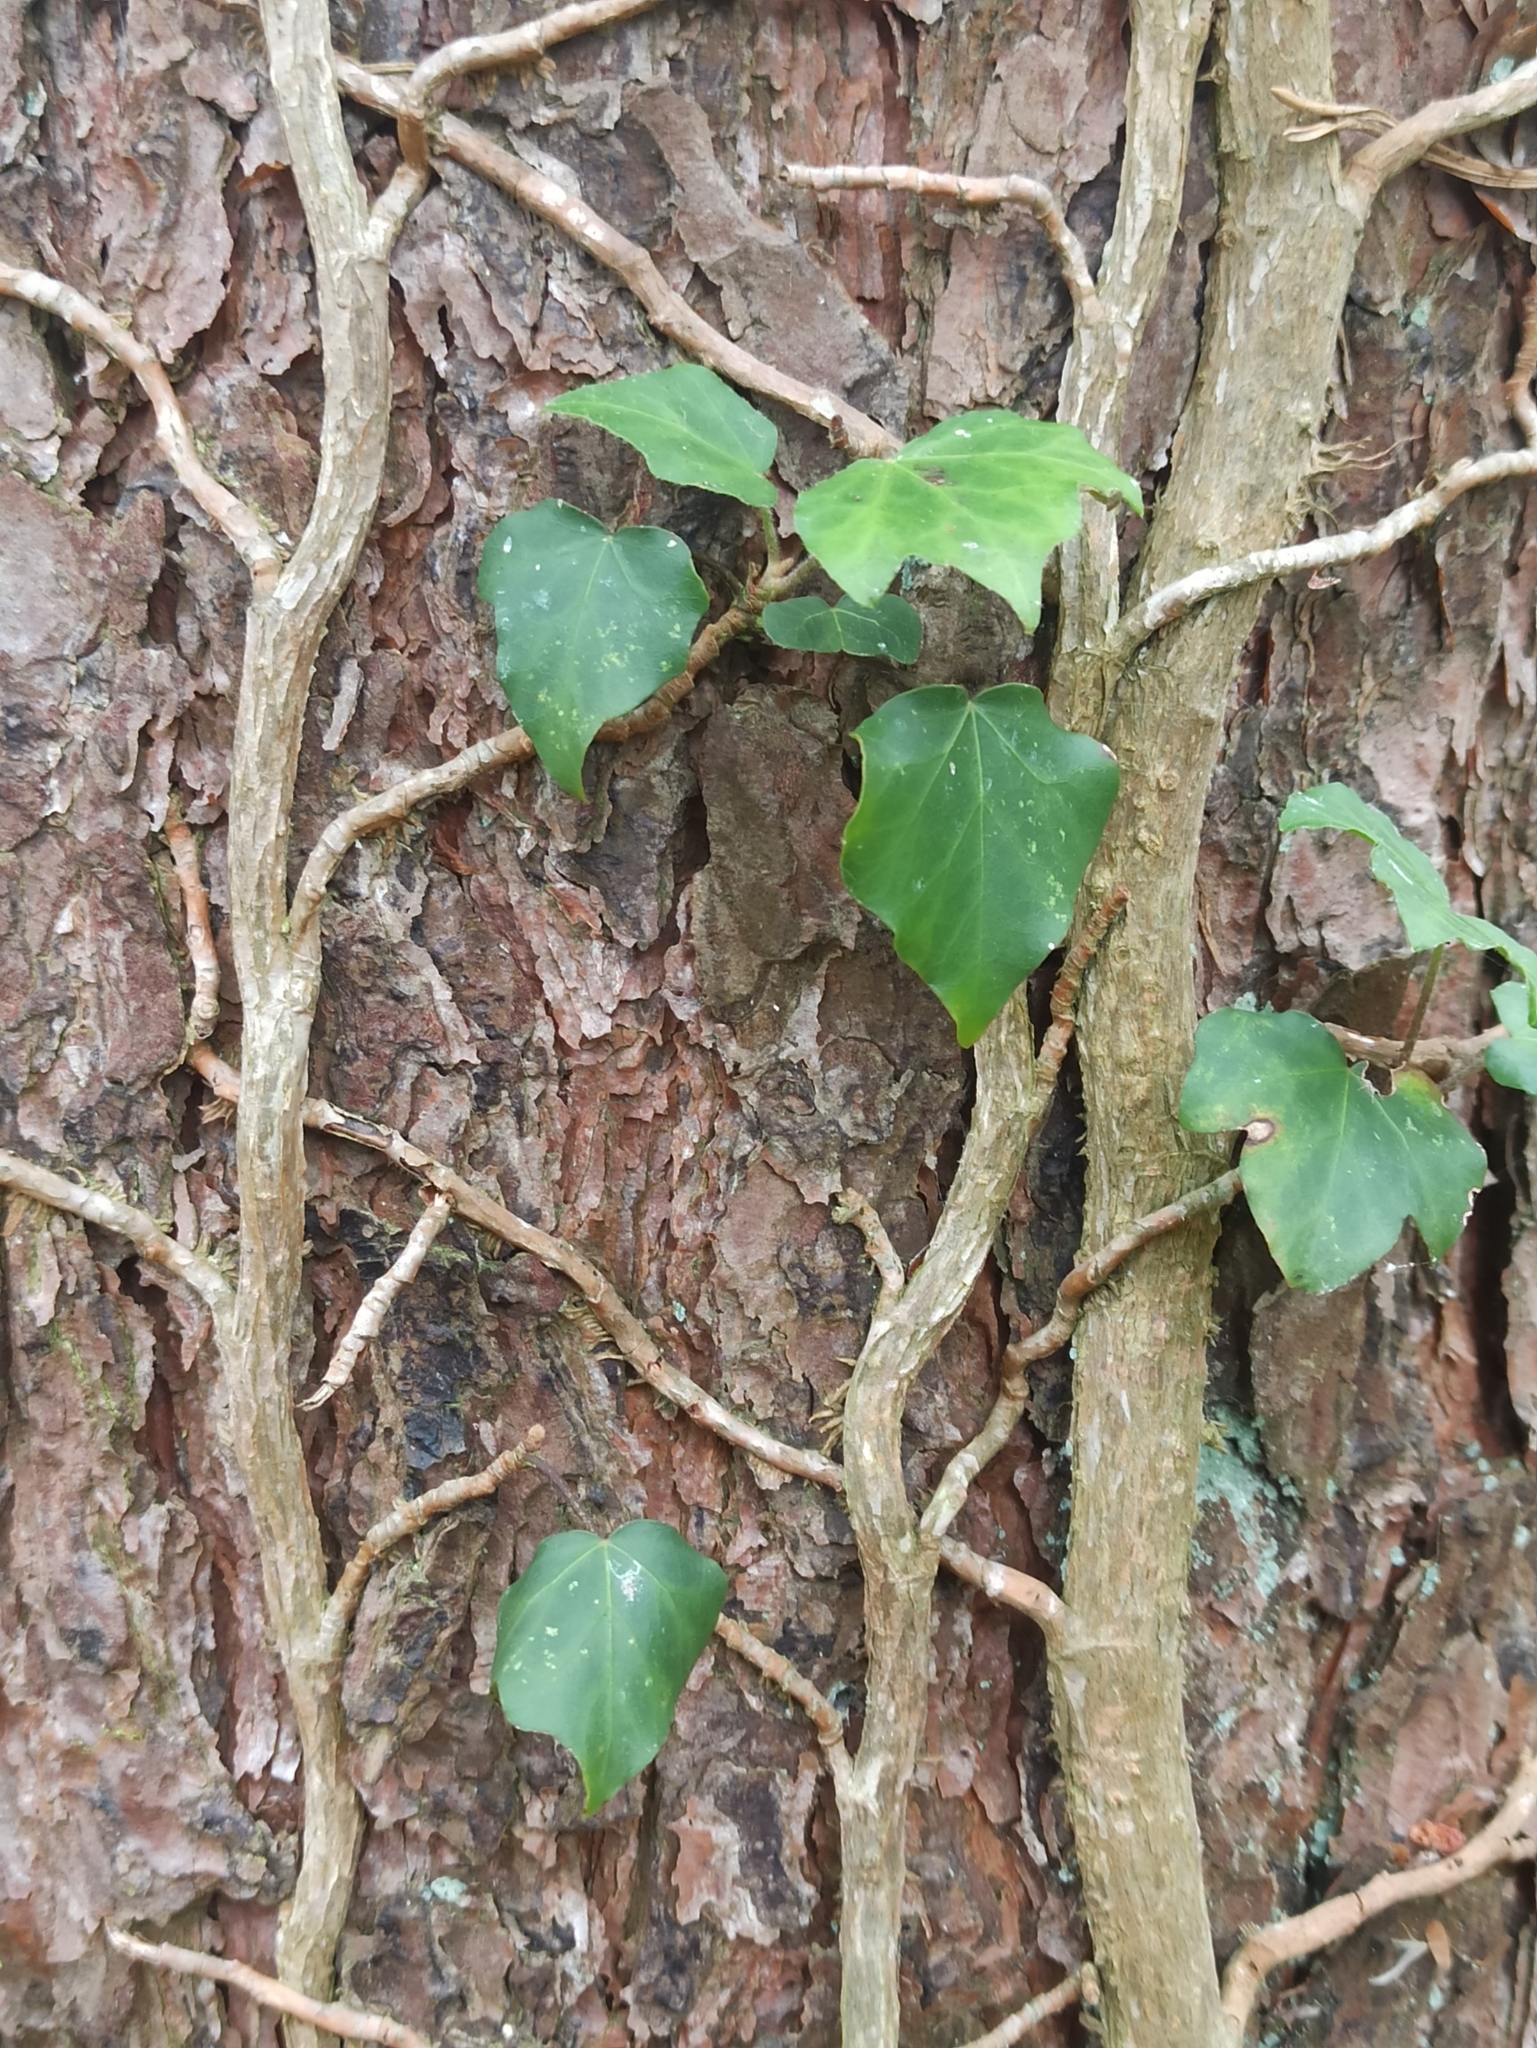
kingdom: Plantae
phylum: Tracheophyta
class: Magnoliopsida
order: Apiales
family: Araliaceae
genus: Hedera
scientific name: Hedera helix
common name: Ivy
